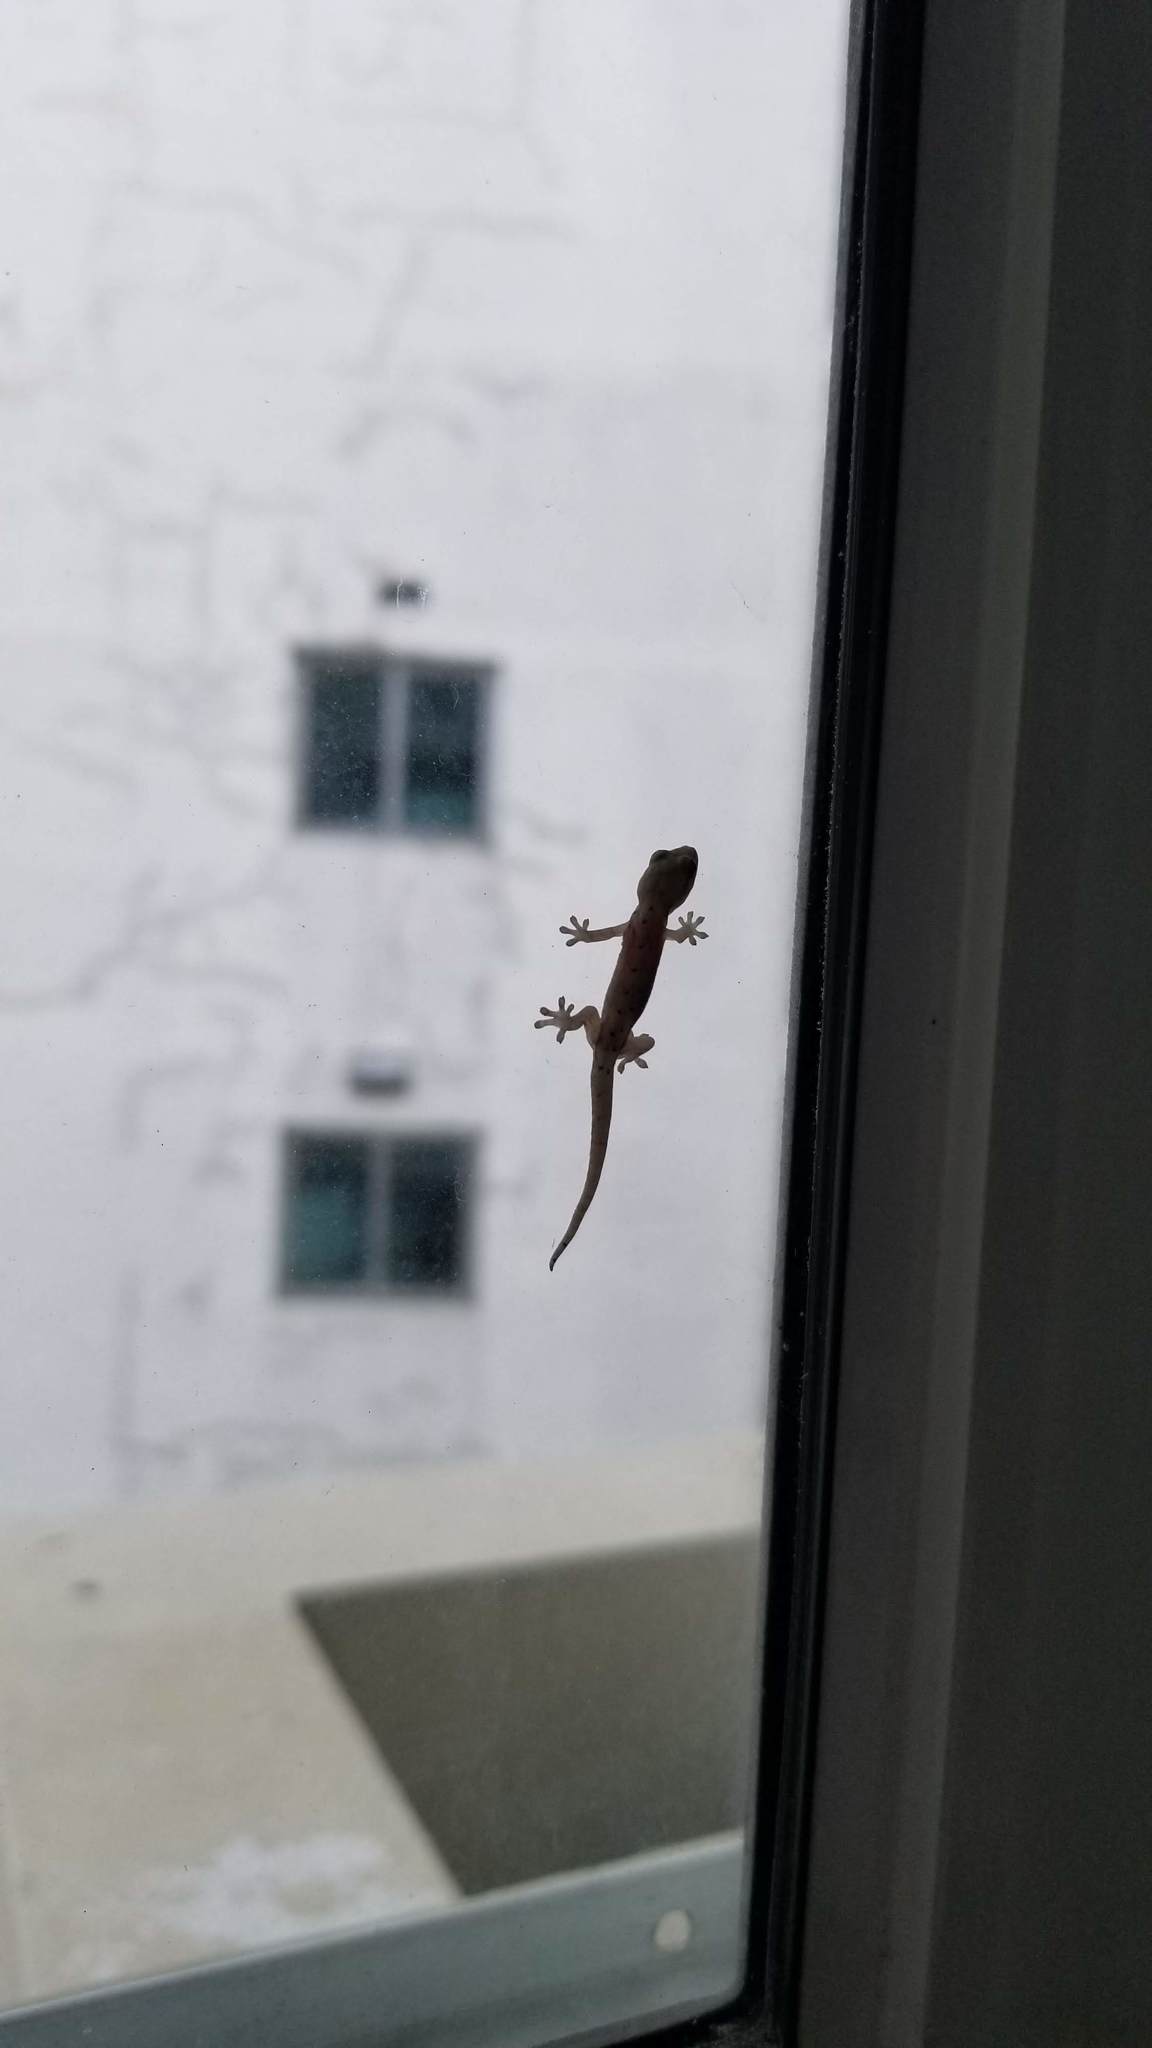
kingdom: Animalia
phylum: Chordata
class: Squamata
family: Gekkonidae
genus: Lepidodactylus
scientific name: Lepidodactylus lugubris
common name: Mourning gecko
